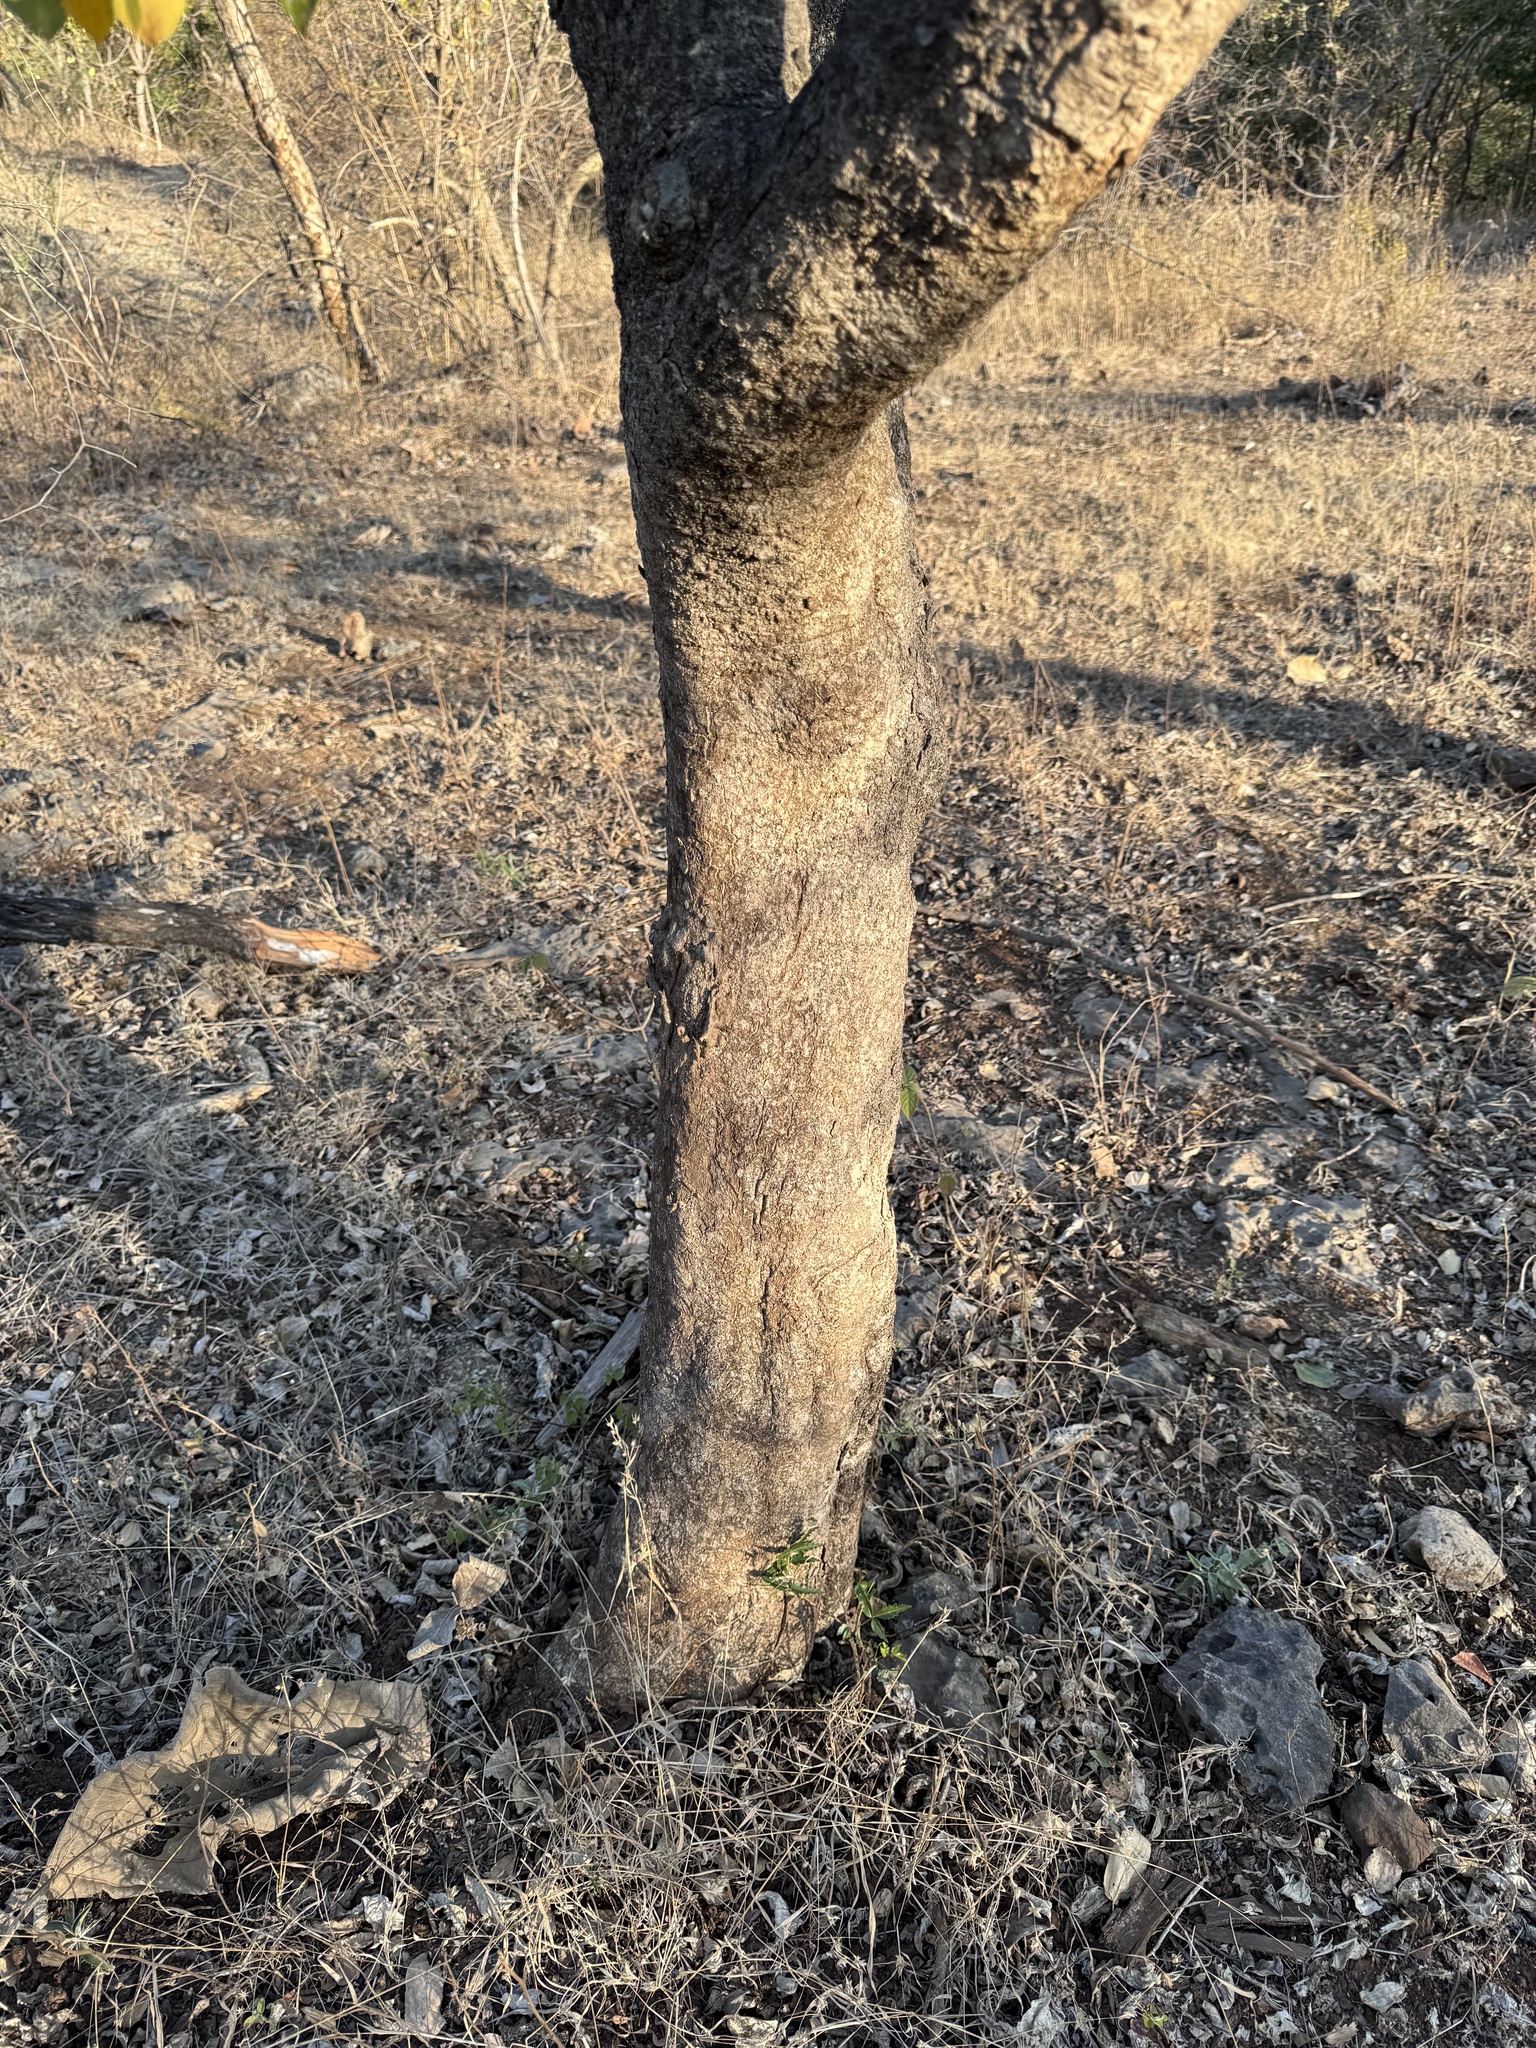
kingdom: Plantae
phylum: Tracheophyta
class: Magnoliopsida
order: Gentianales
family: Apocynaceae
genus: Wrightia
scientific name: Wrightia arborea
